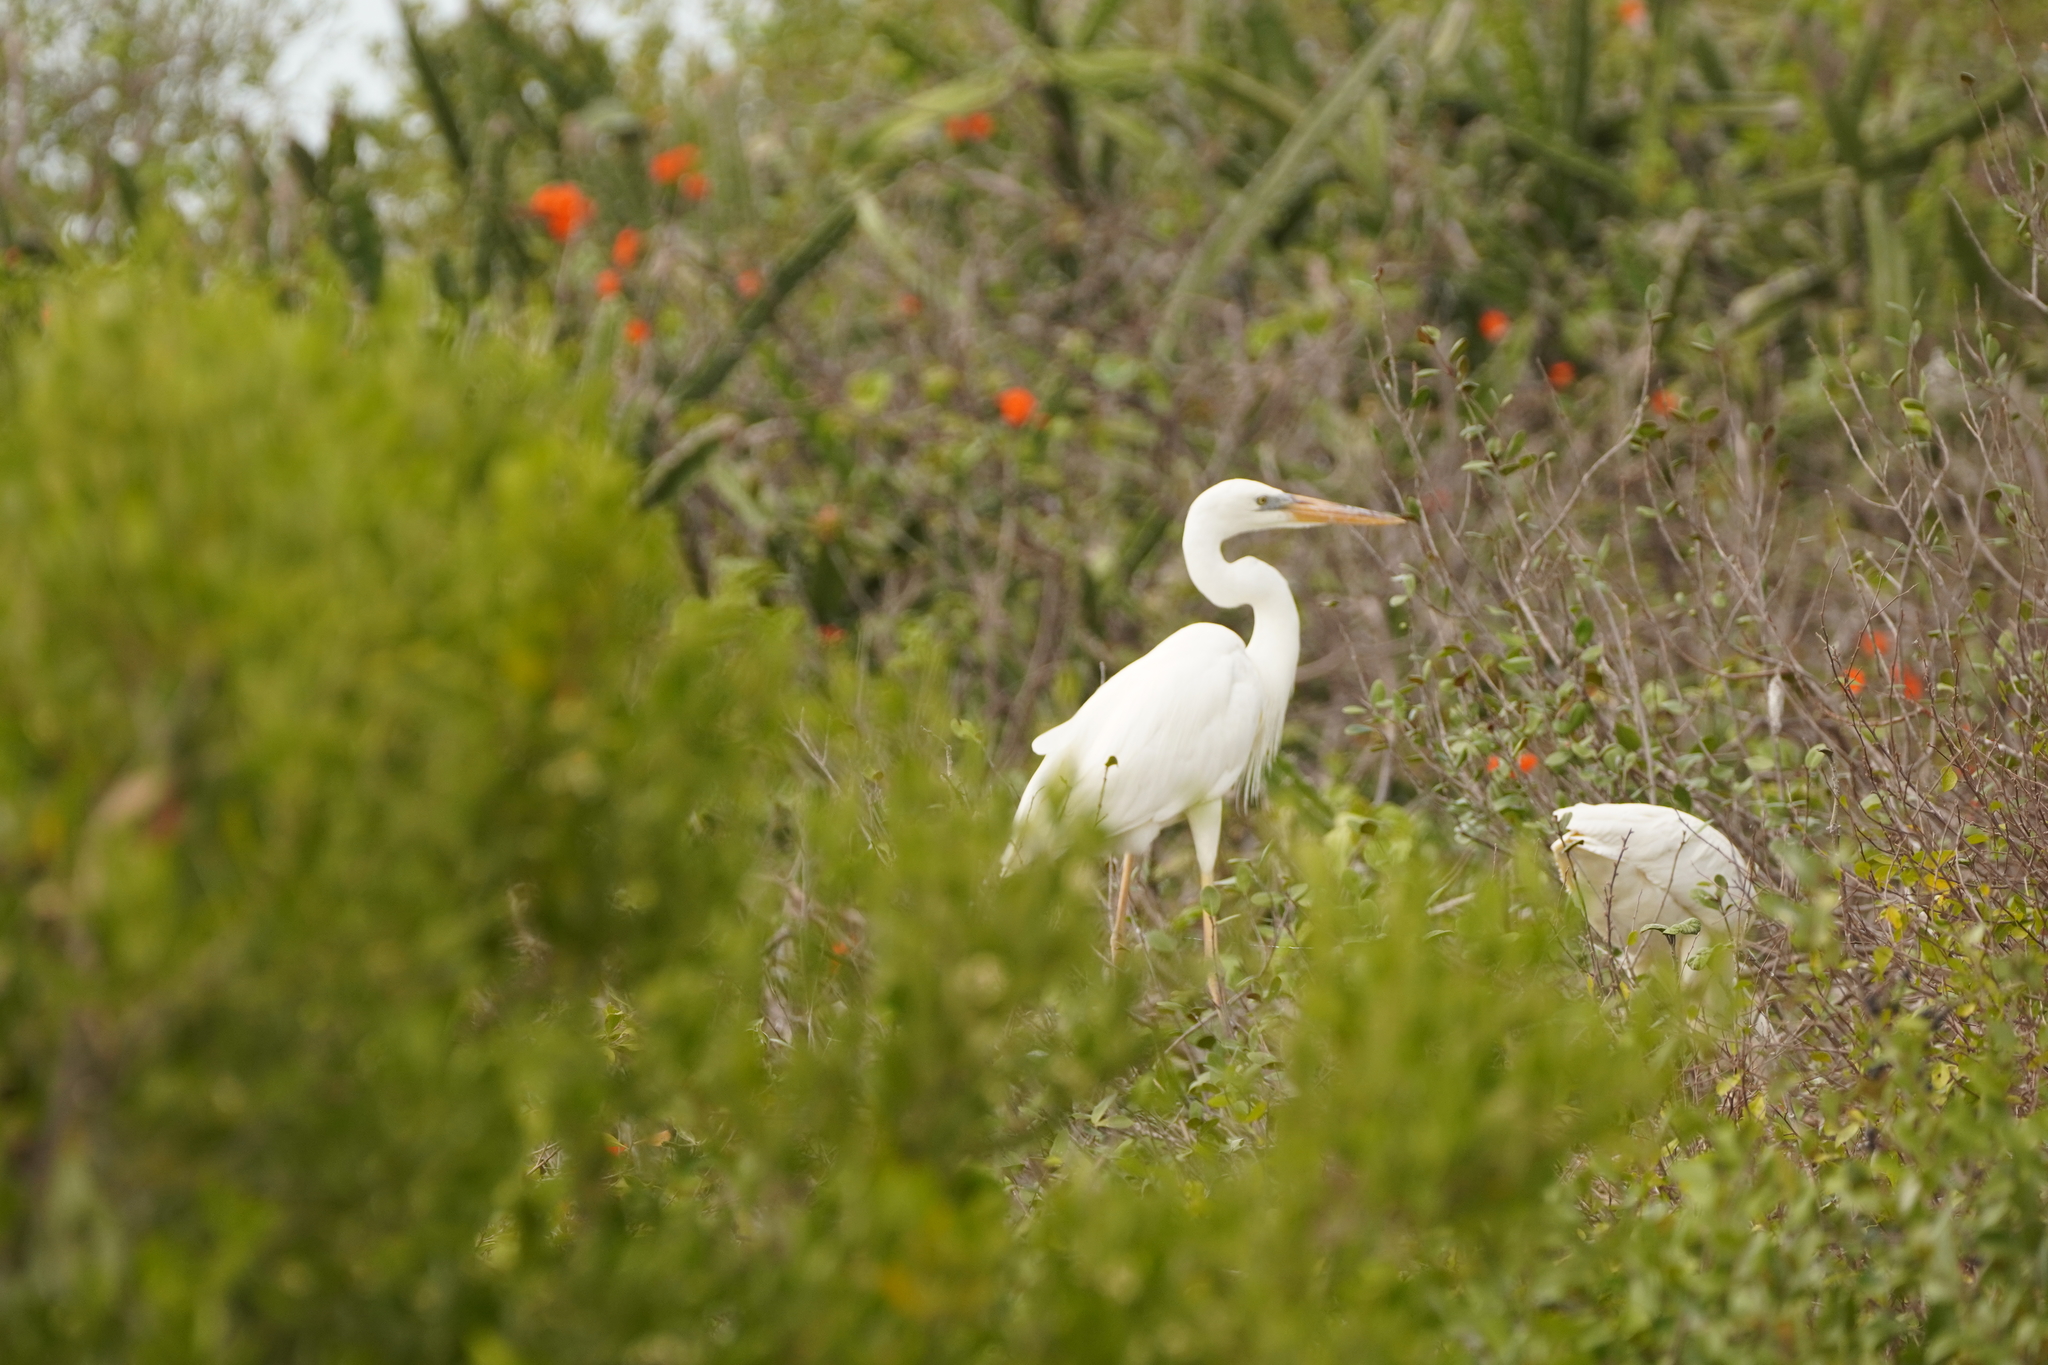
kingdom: Animalia
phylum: Chordata
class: Aves
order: Pelecaniformes
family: Ardeidae
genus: Ardea
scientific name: Ardea herodias
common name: Great blue heron
